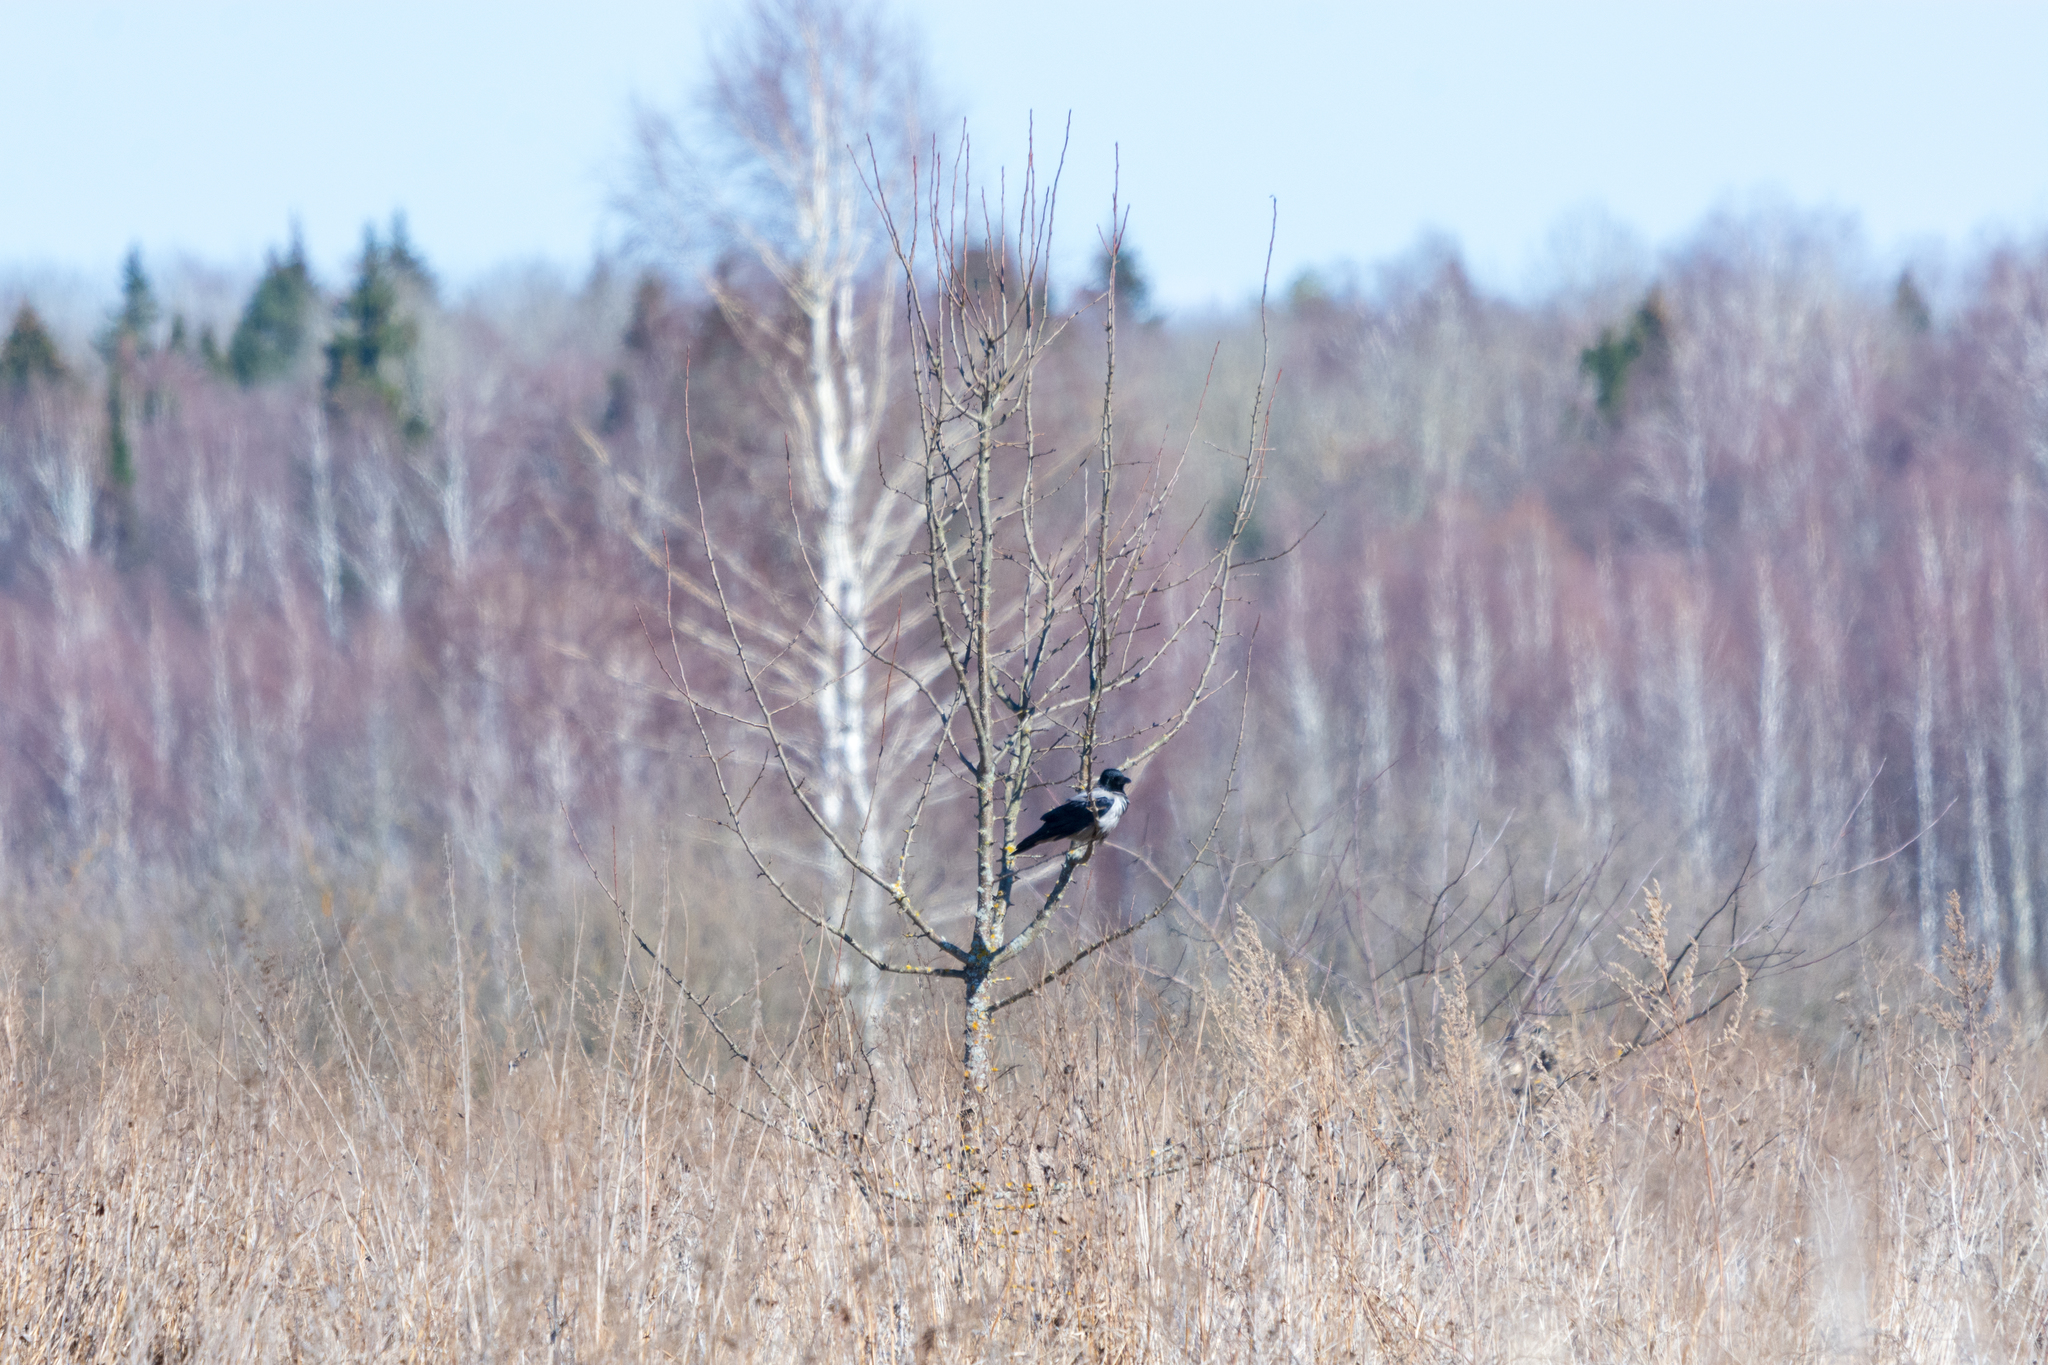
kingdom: Animalia
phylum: Chordata
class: Aves
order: Passeriformes
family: Corvidae
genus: Corvus
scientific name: Corvus cornix
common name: Hooded crow
